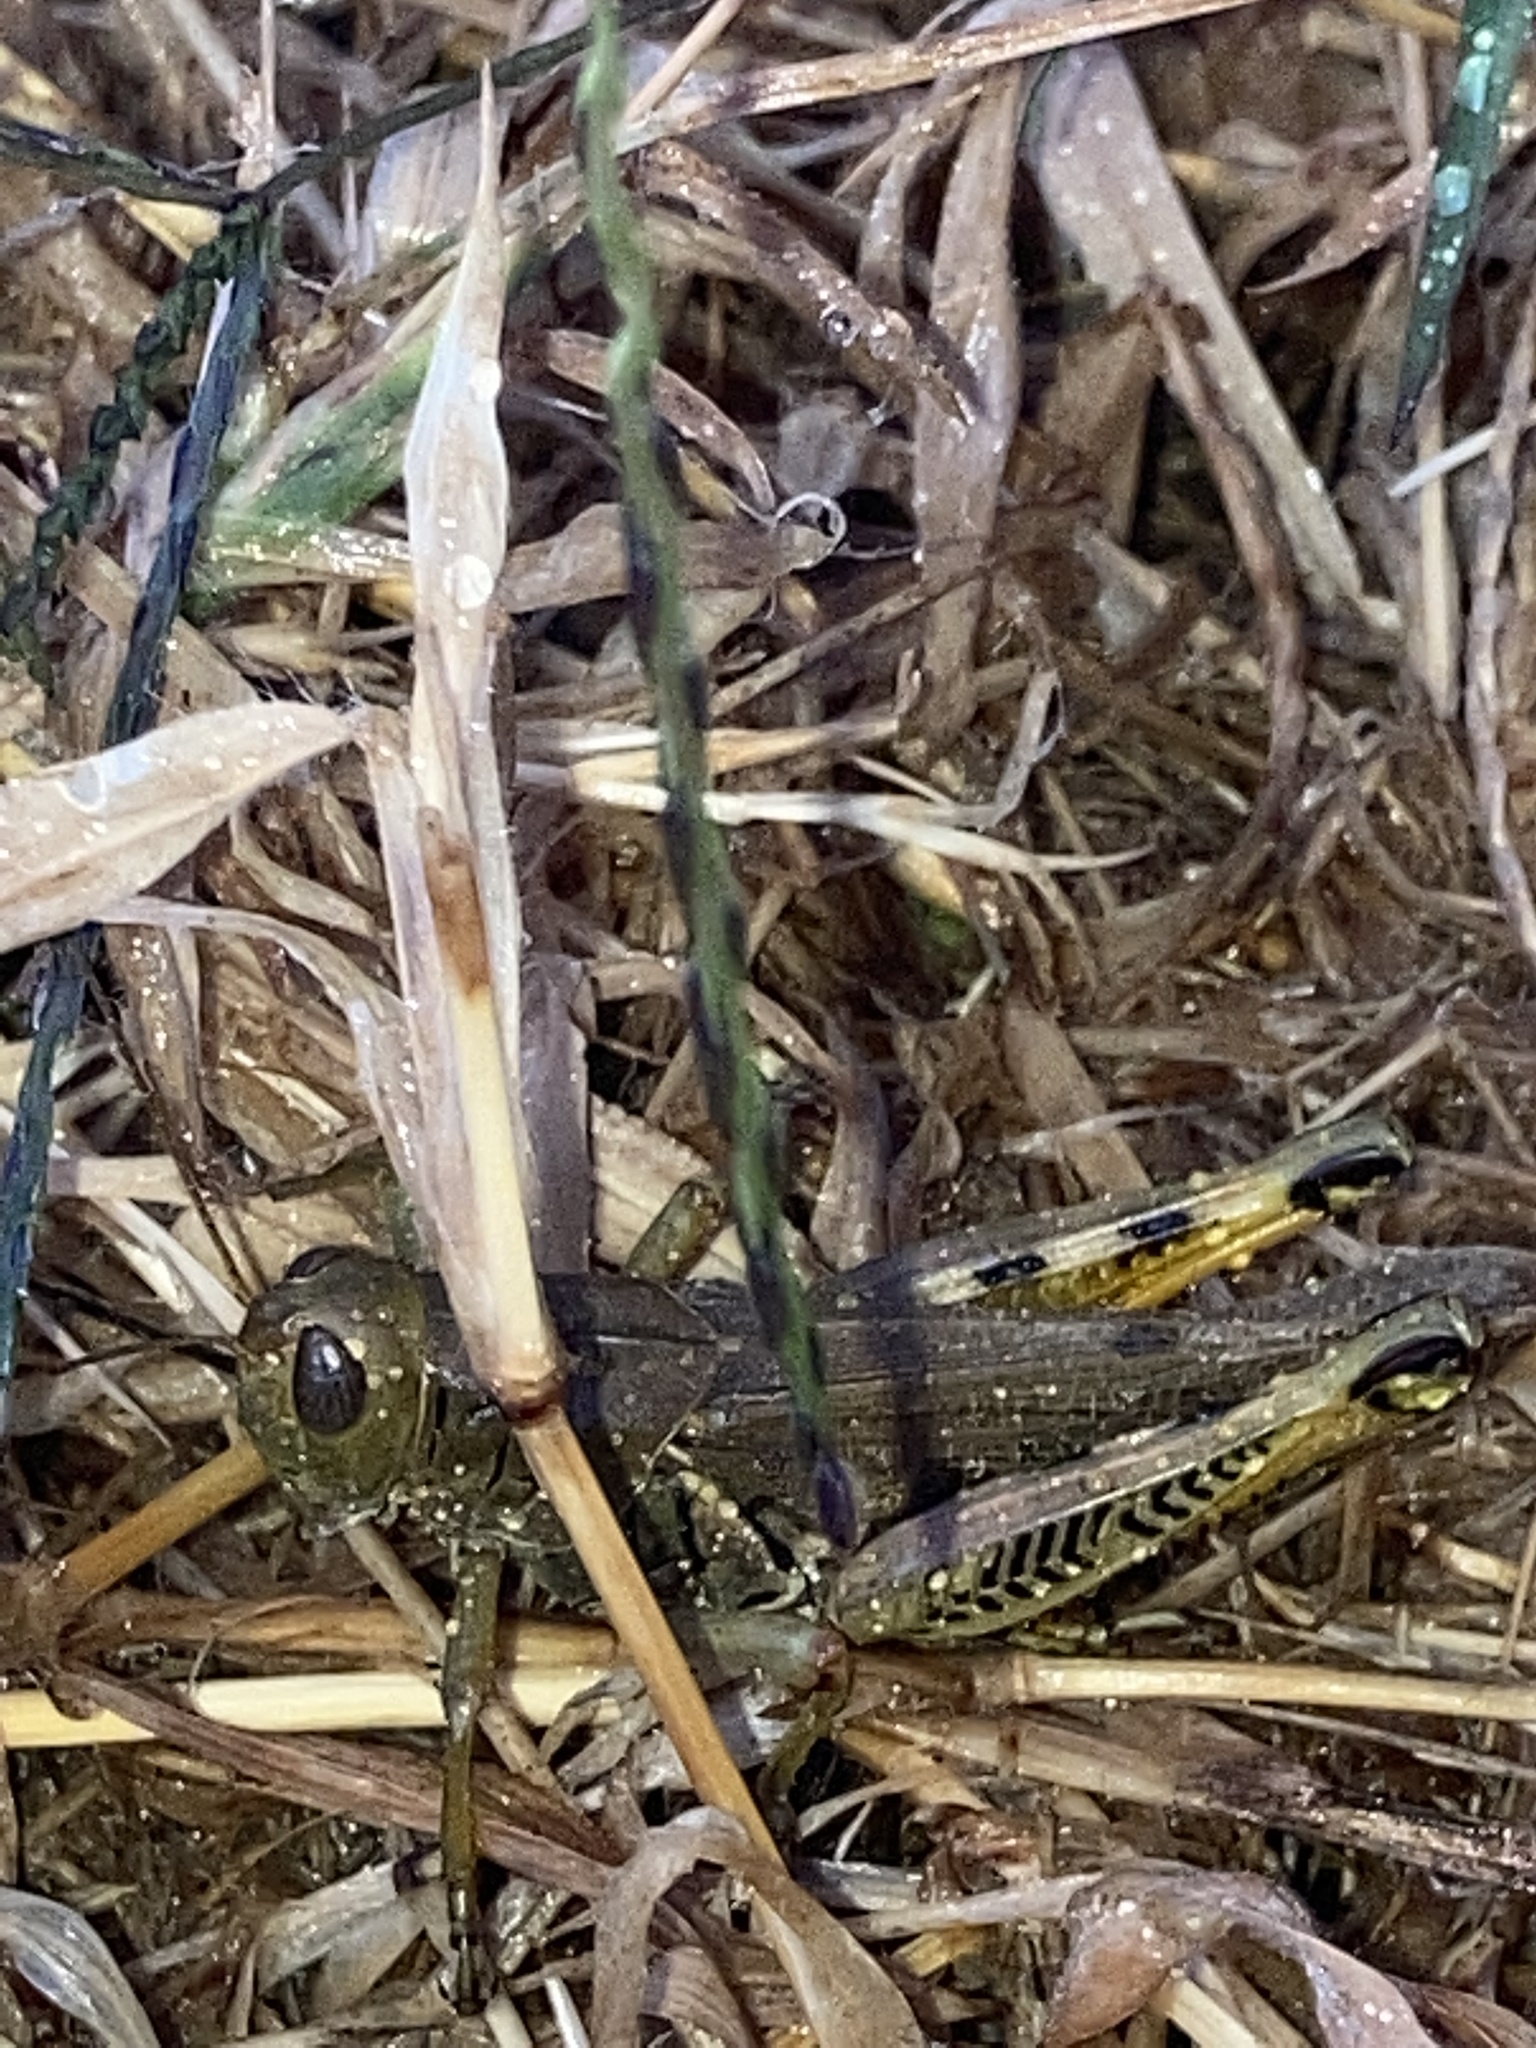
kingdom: Animalia
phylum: Arthropoda
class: Insecta
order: Orthoptera
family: Acrididae
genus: Melanoplus
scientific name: Melanoplus differentialis
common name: Differential grasshopper
